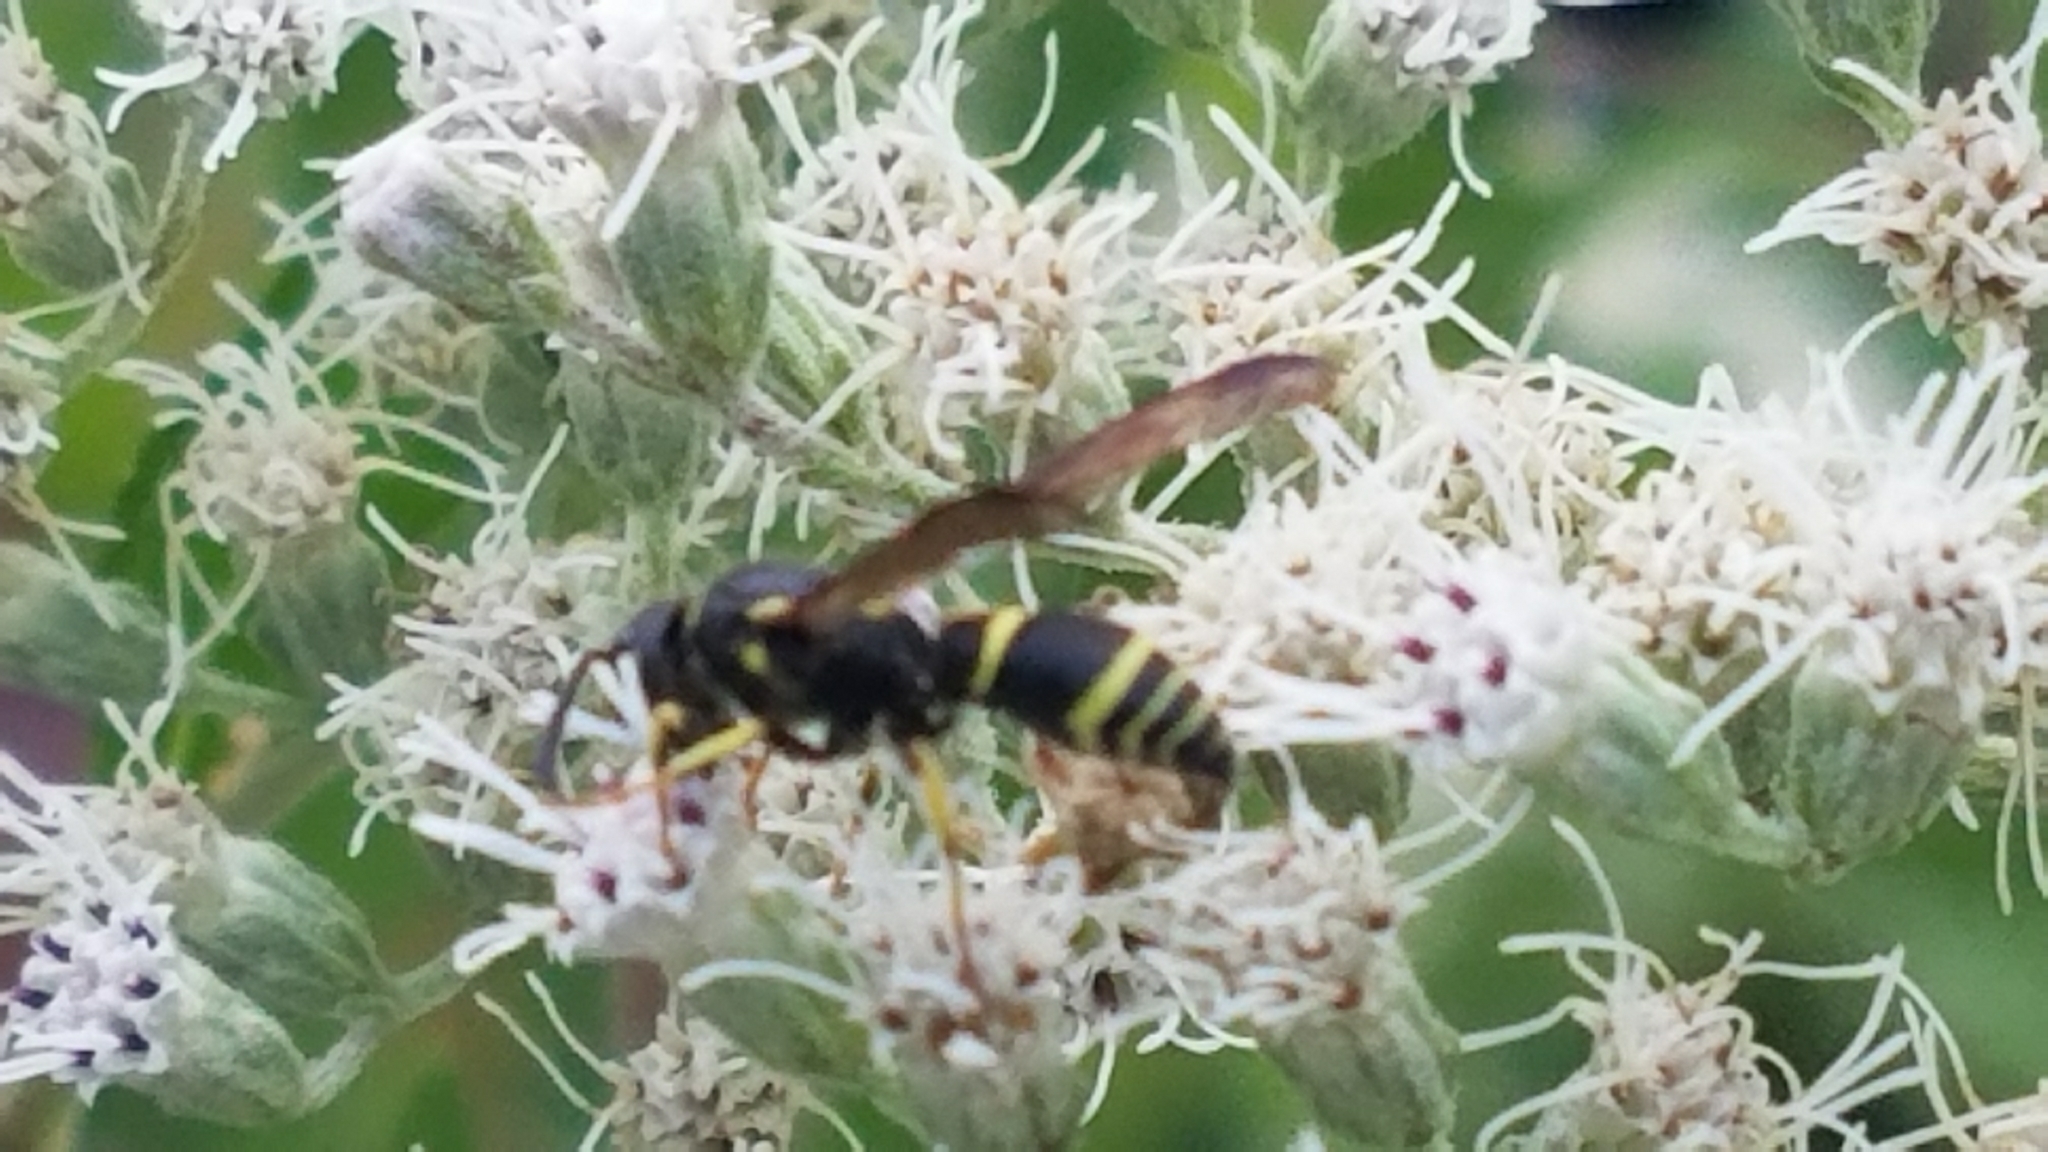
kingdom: Animalia
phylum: Arthropoda
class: Insecta
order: Hymenoptera
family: Vespidae
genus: Ancistrocerus
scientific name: Ancistrocerus
